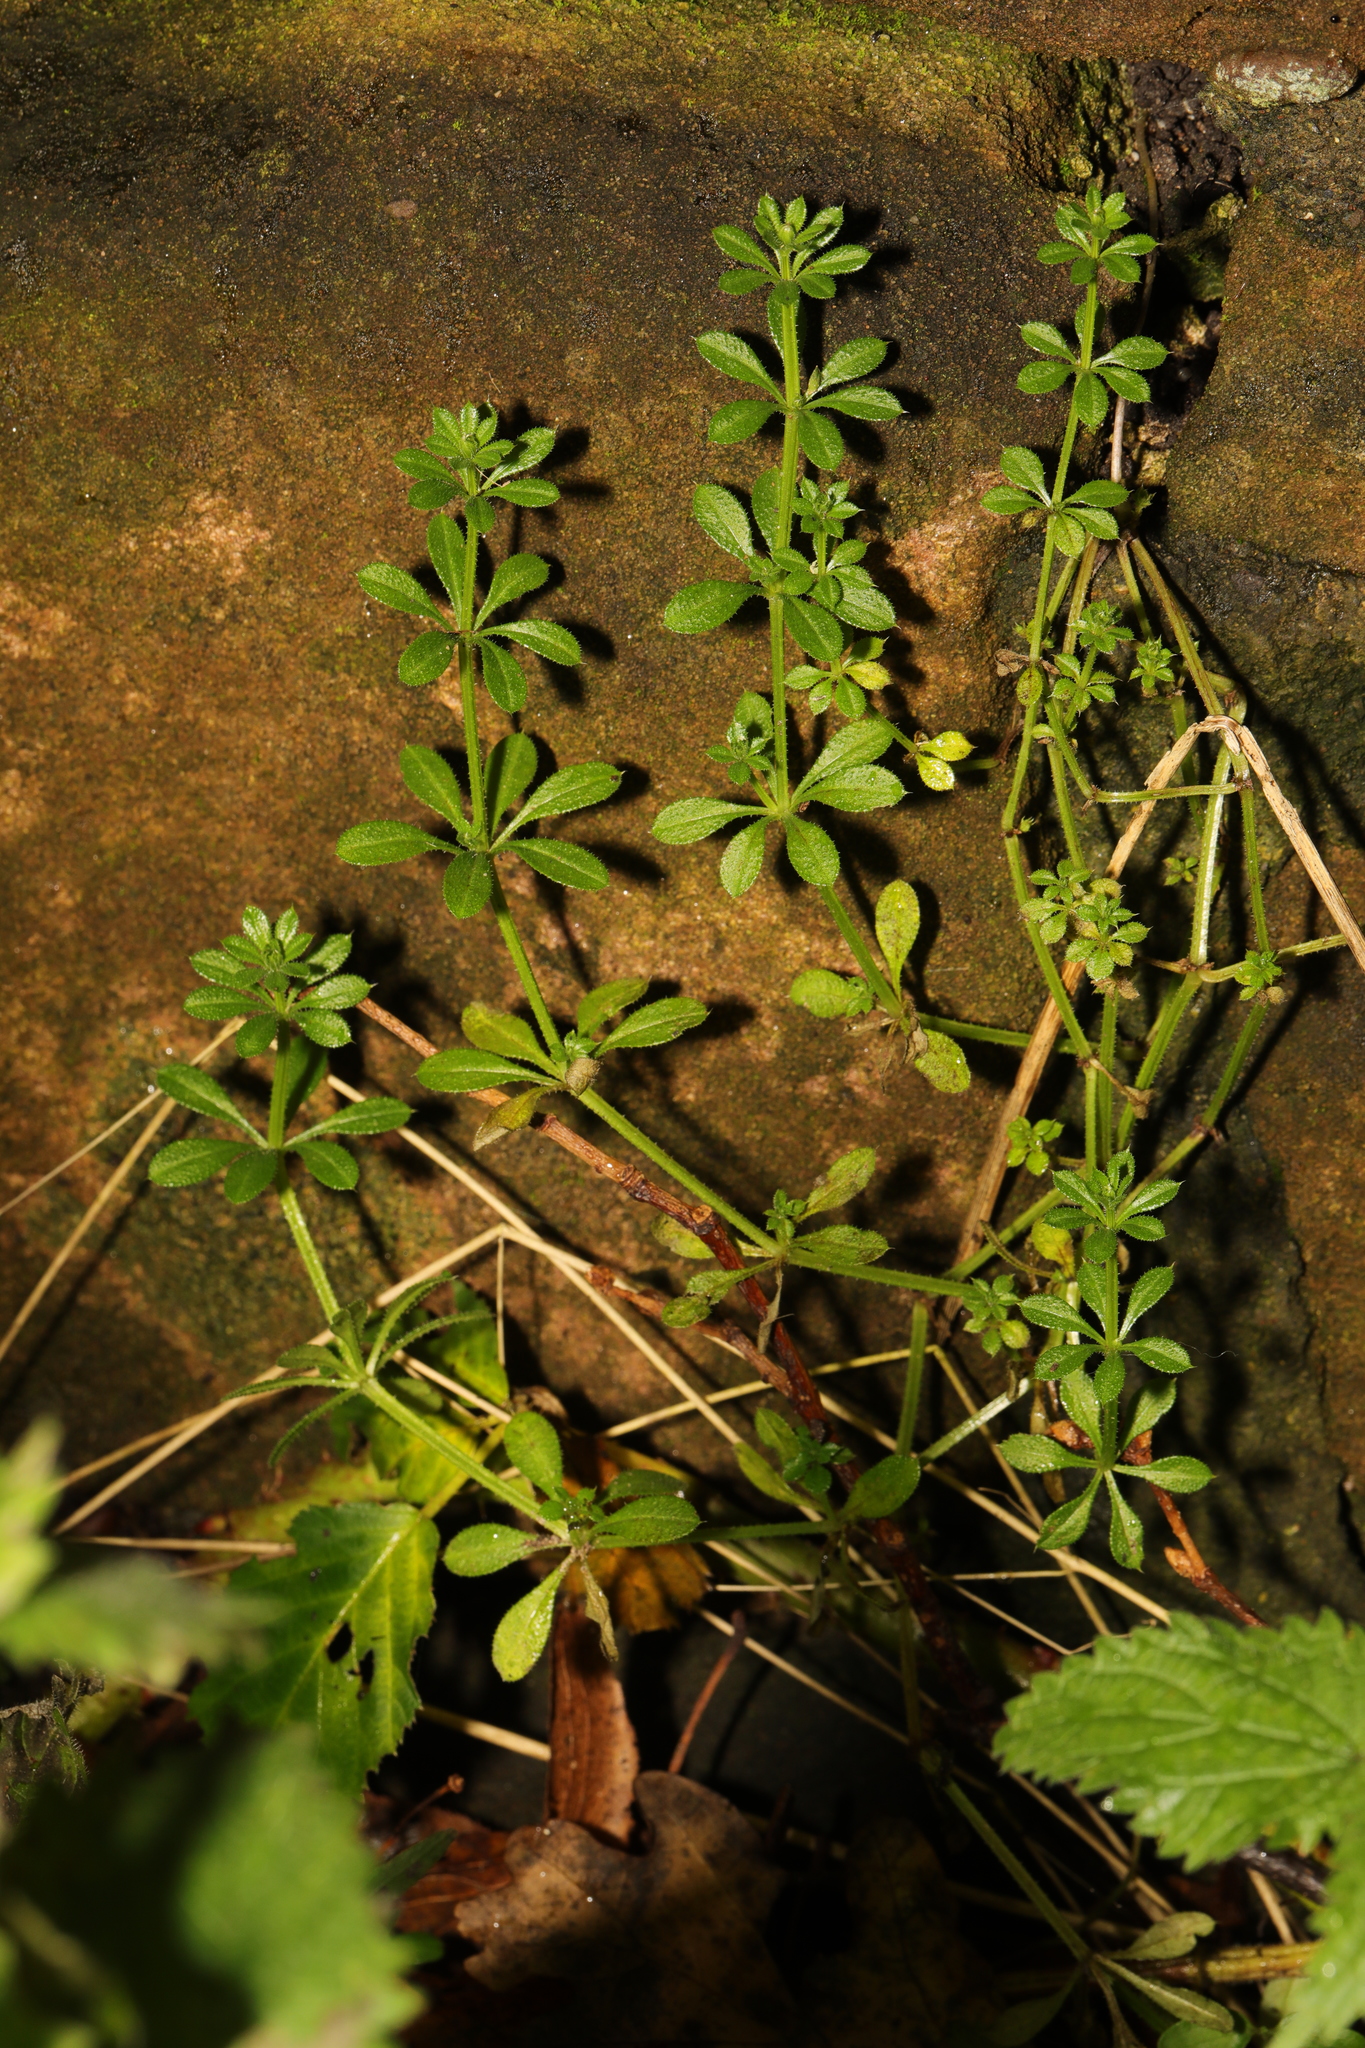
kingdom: Plantae
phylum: Tracheophyta
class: Magnoliopsida
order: Gentianales
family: Rubiaceae
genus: Galium
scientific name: Galium aparine
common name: Cleavers
